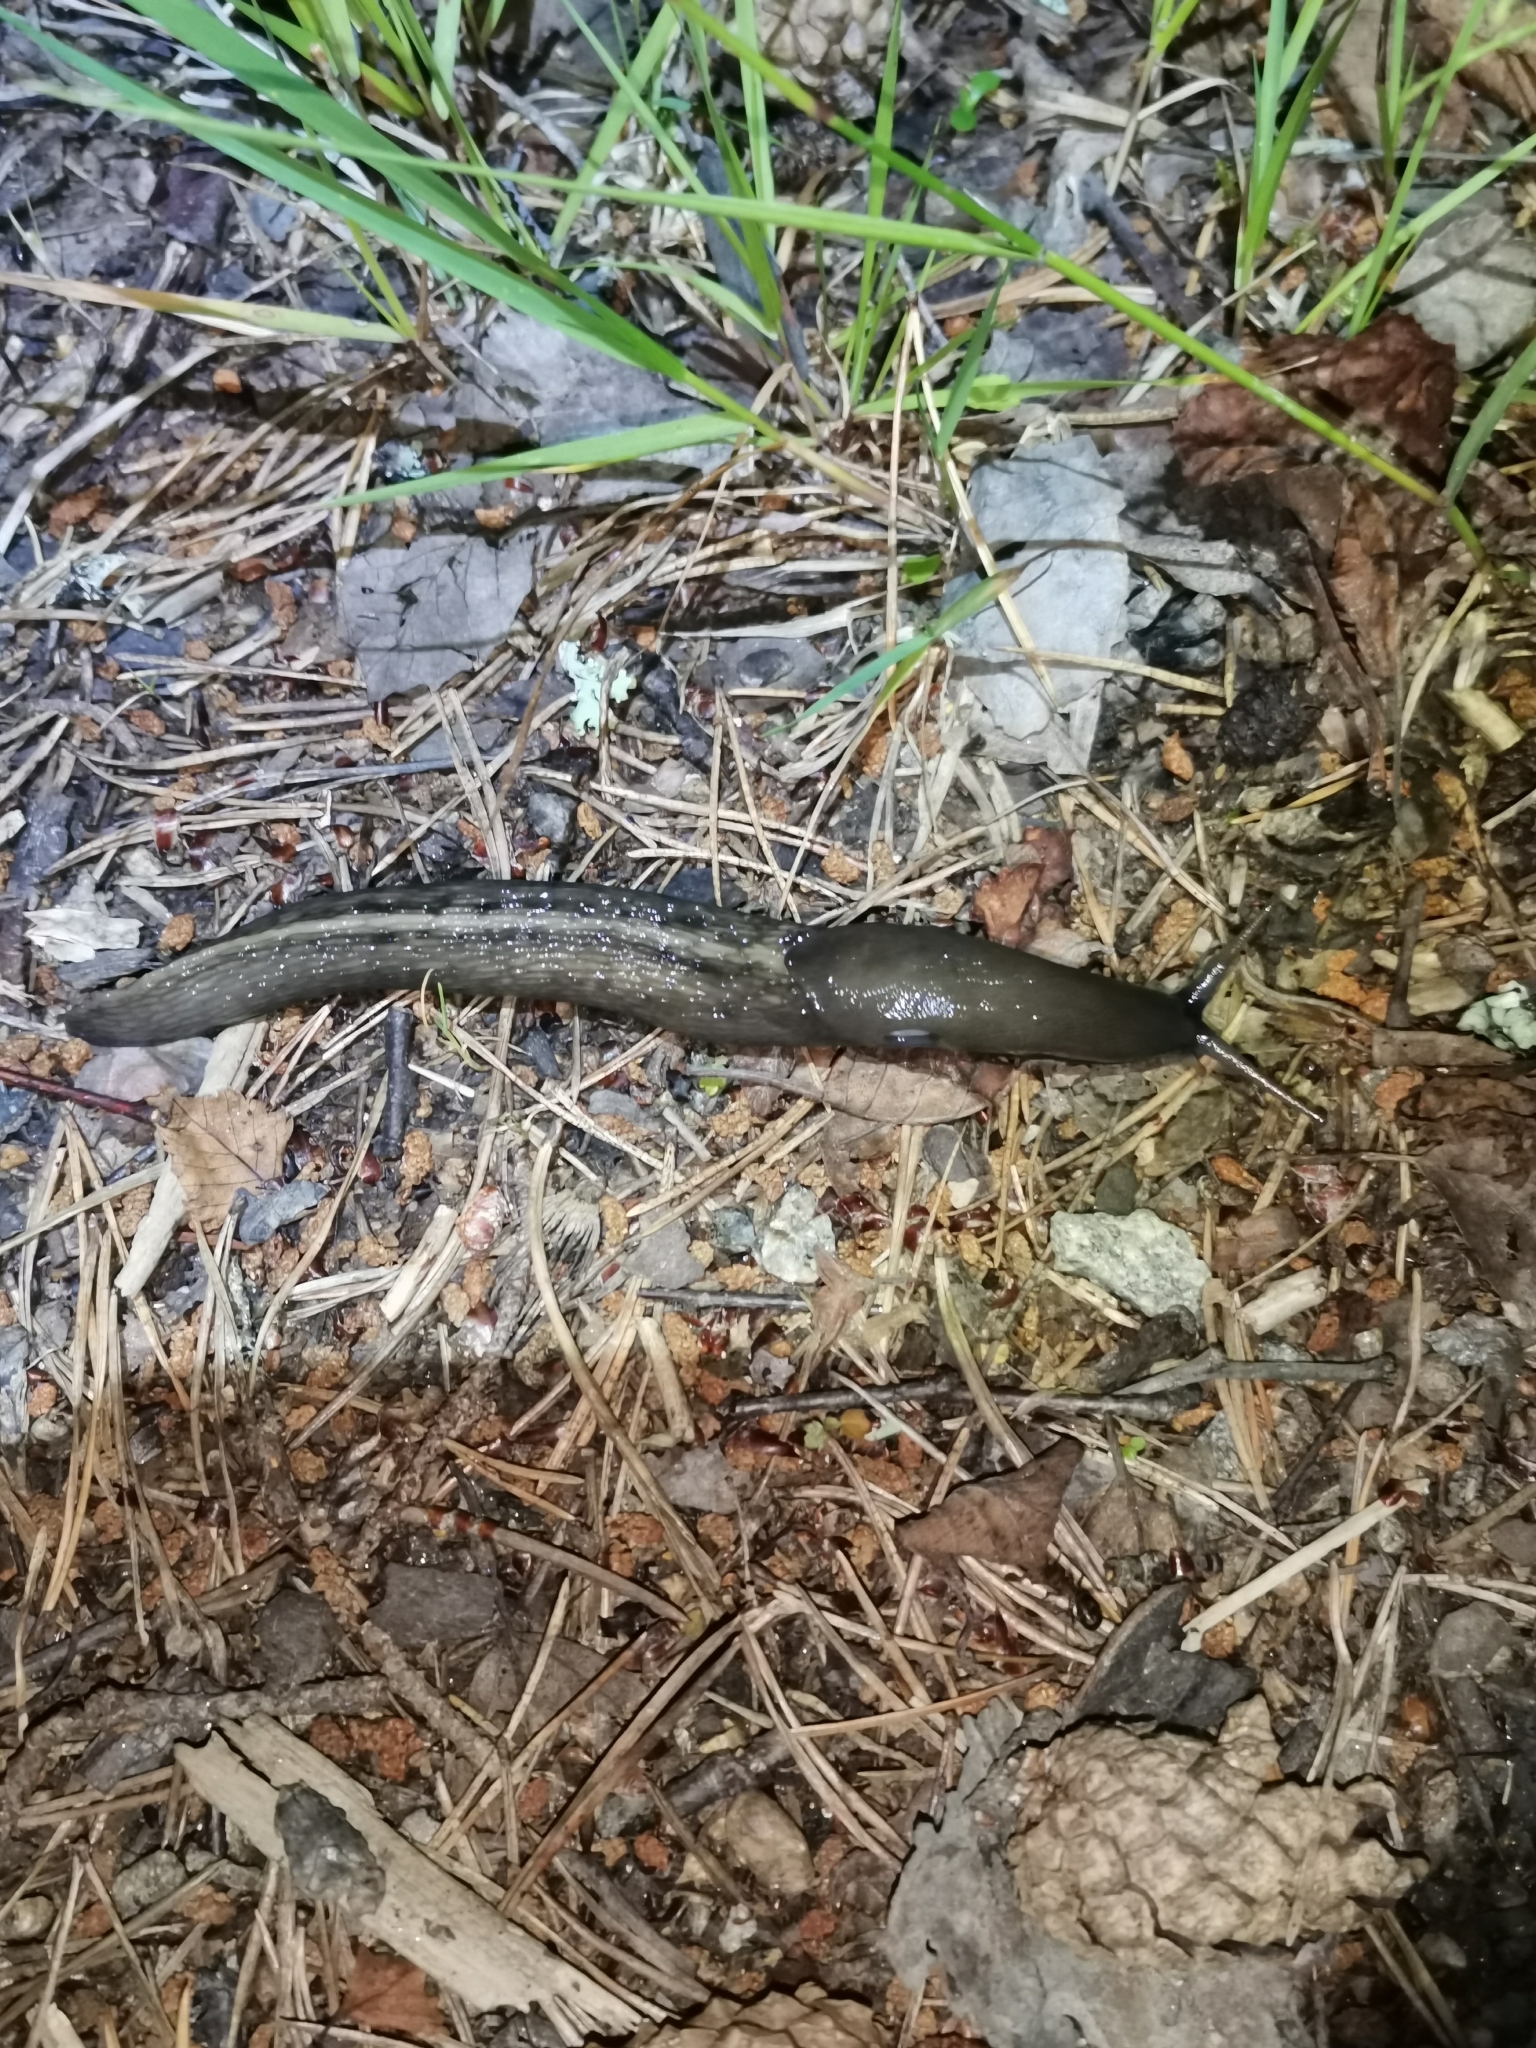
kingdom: Animalia
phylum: Mollusca
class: Gastropoda
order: Stylommatophora
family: Limacidae
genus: Limax
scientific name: Limax cinereoniger
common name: Ash-black slug
